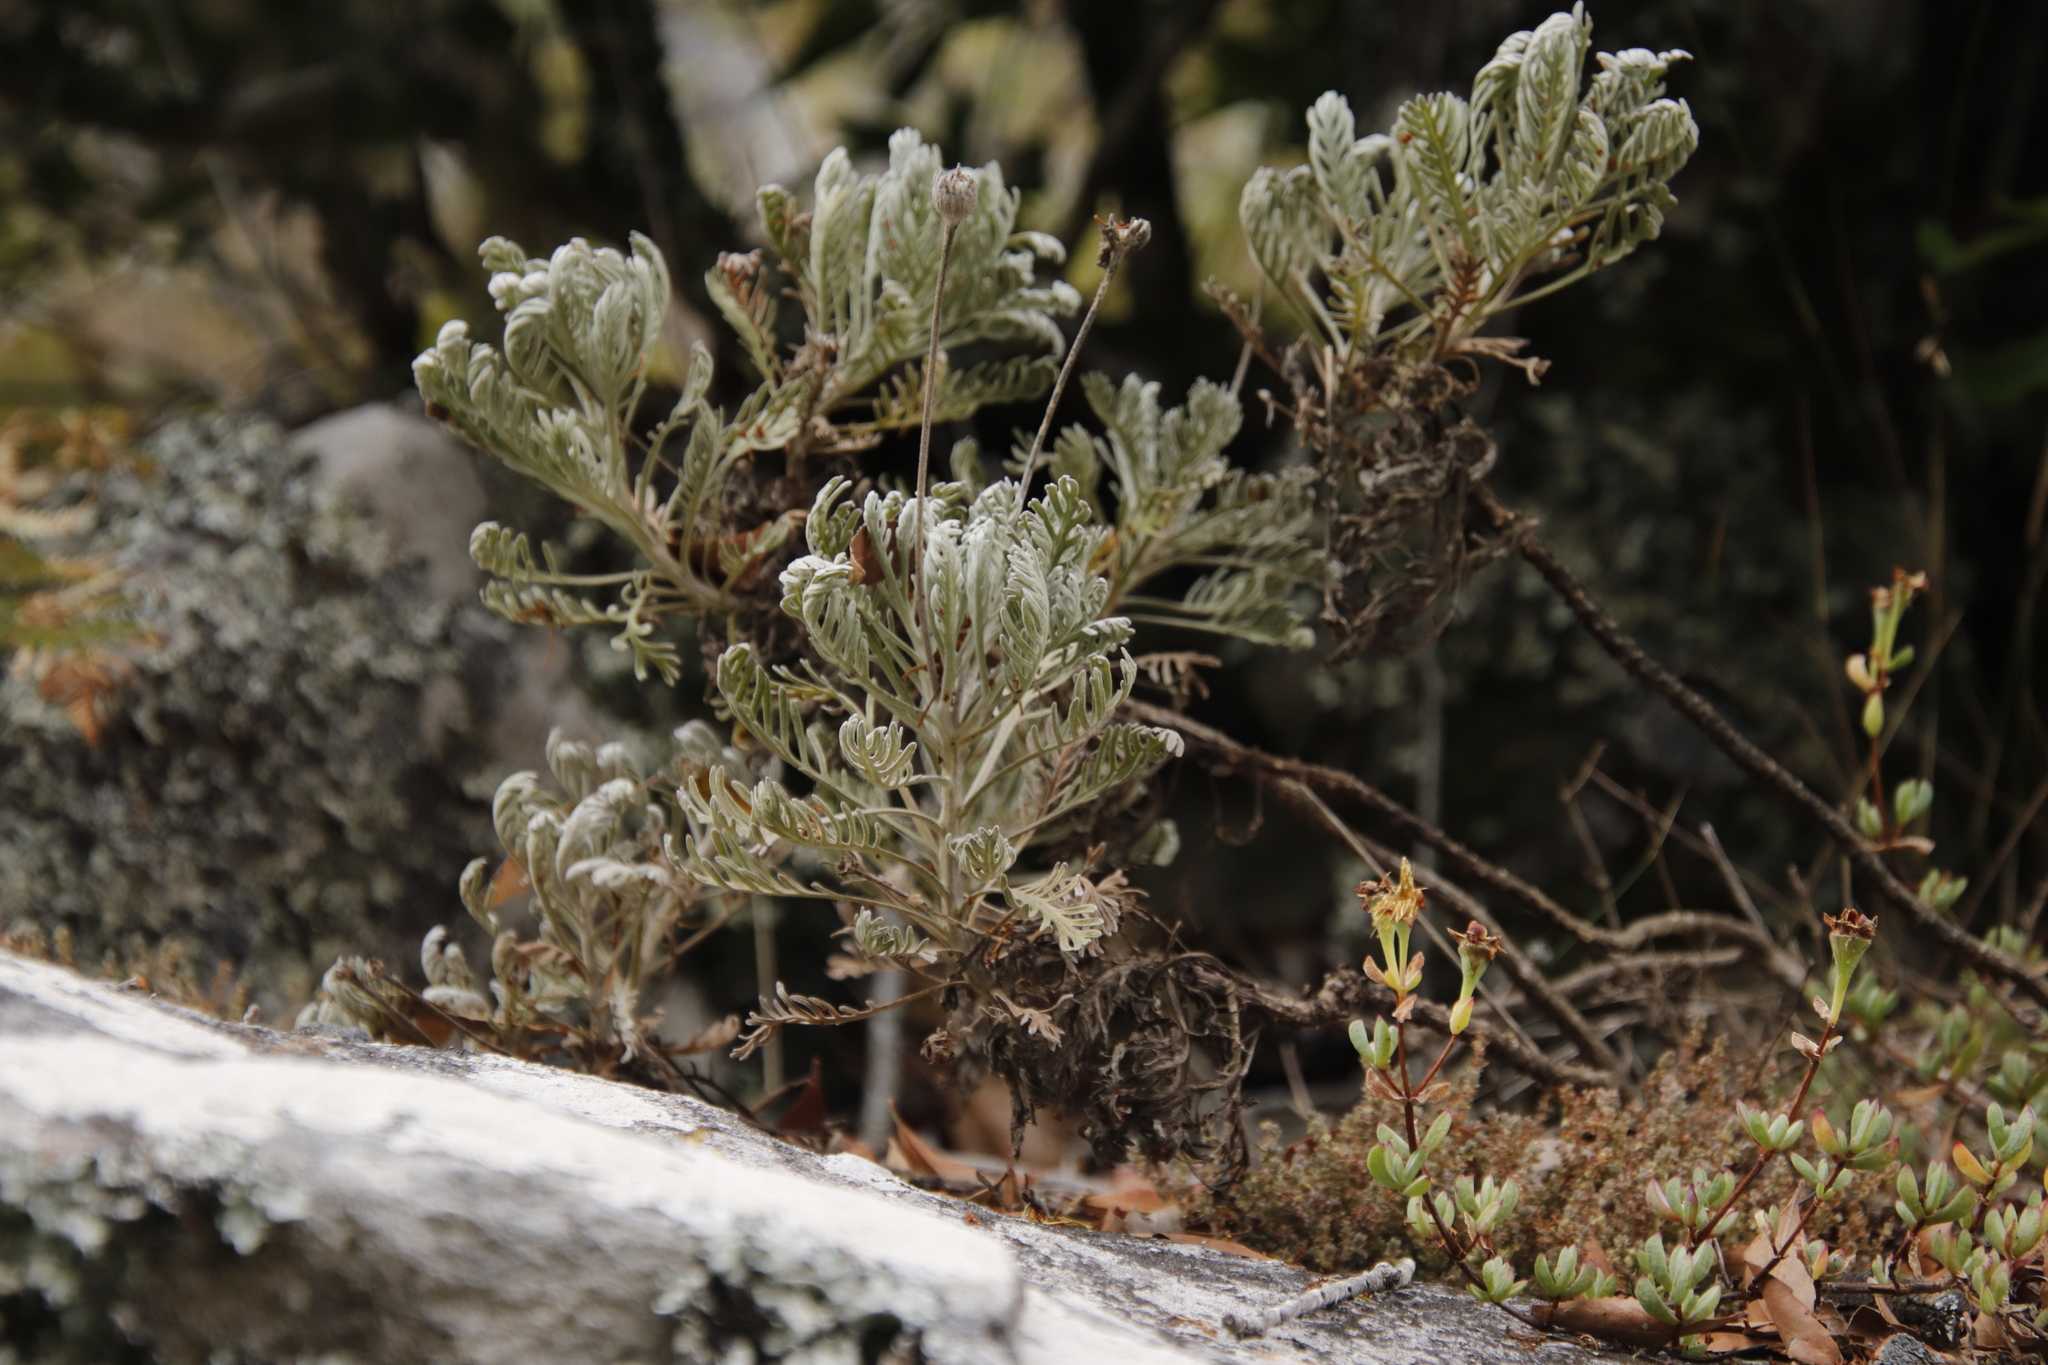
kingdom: Plantae
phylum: Tracheophyta
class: Magnoliopsida
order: Asterales
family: Asteraceae
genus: Euryops
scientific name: Euryops pectinatus
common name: Gray-leaf euryops
